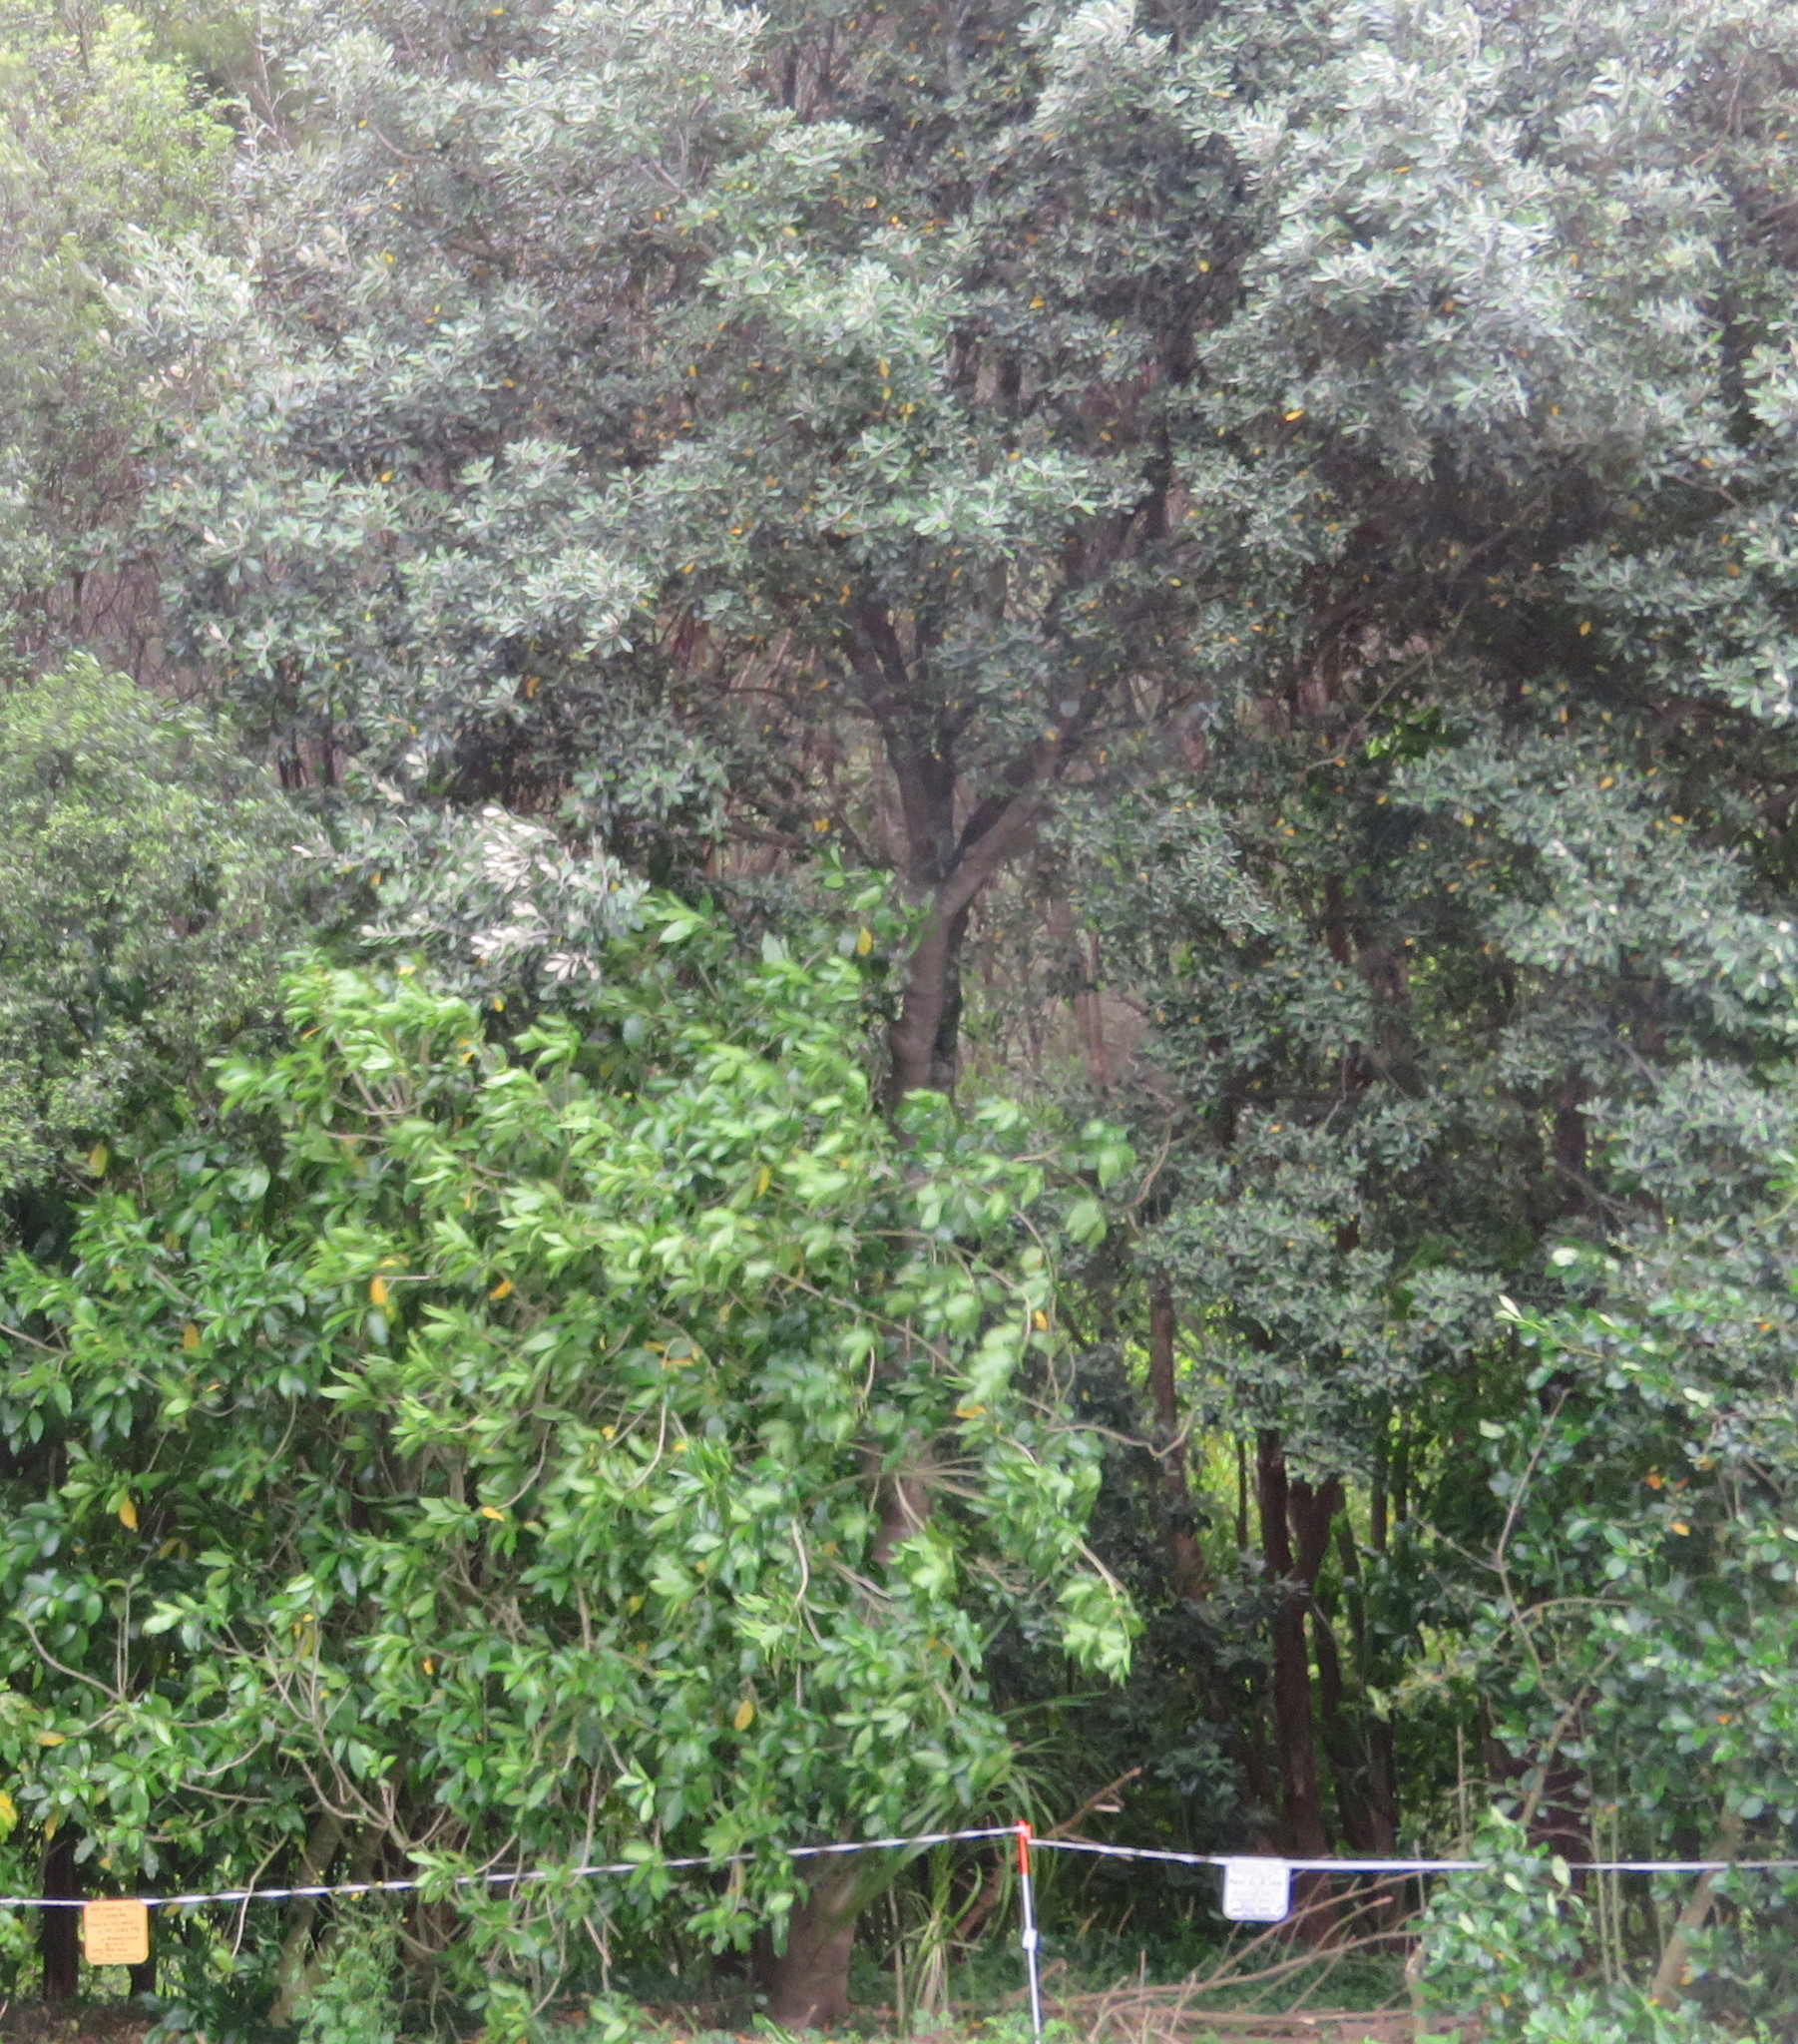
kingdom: Plantae
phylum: Tracheophyta
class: Magnoliopsida
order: Apiales
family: Pittosporaceae
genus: Pittosporum
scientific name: Pittosporum crassifolium
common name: Karo
